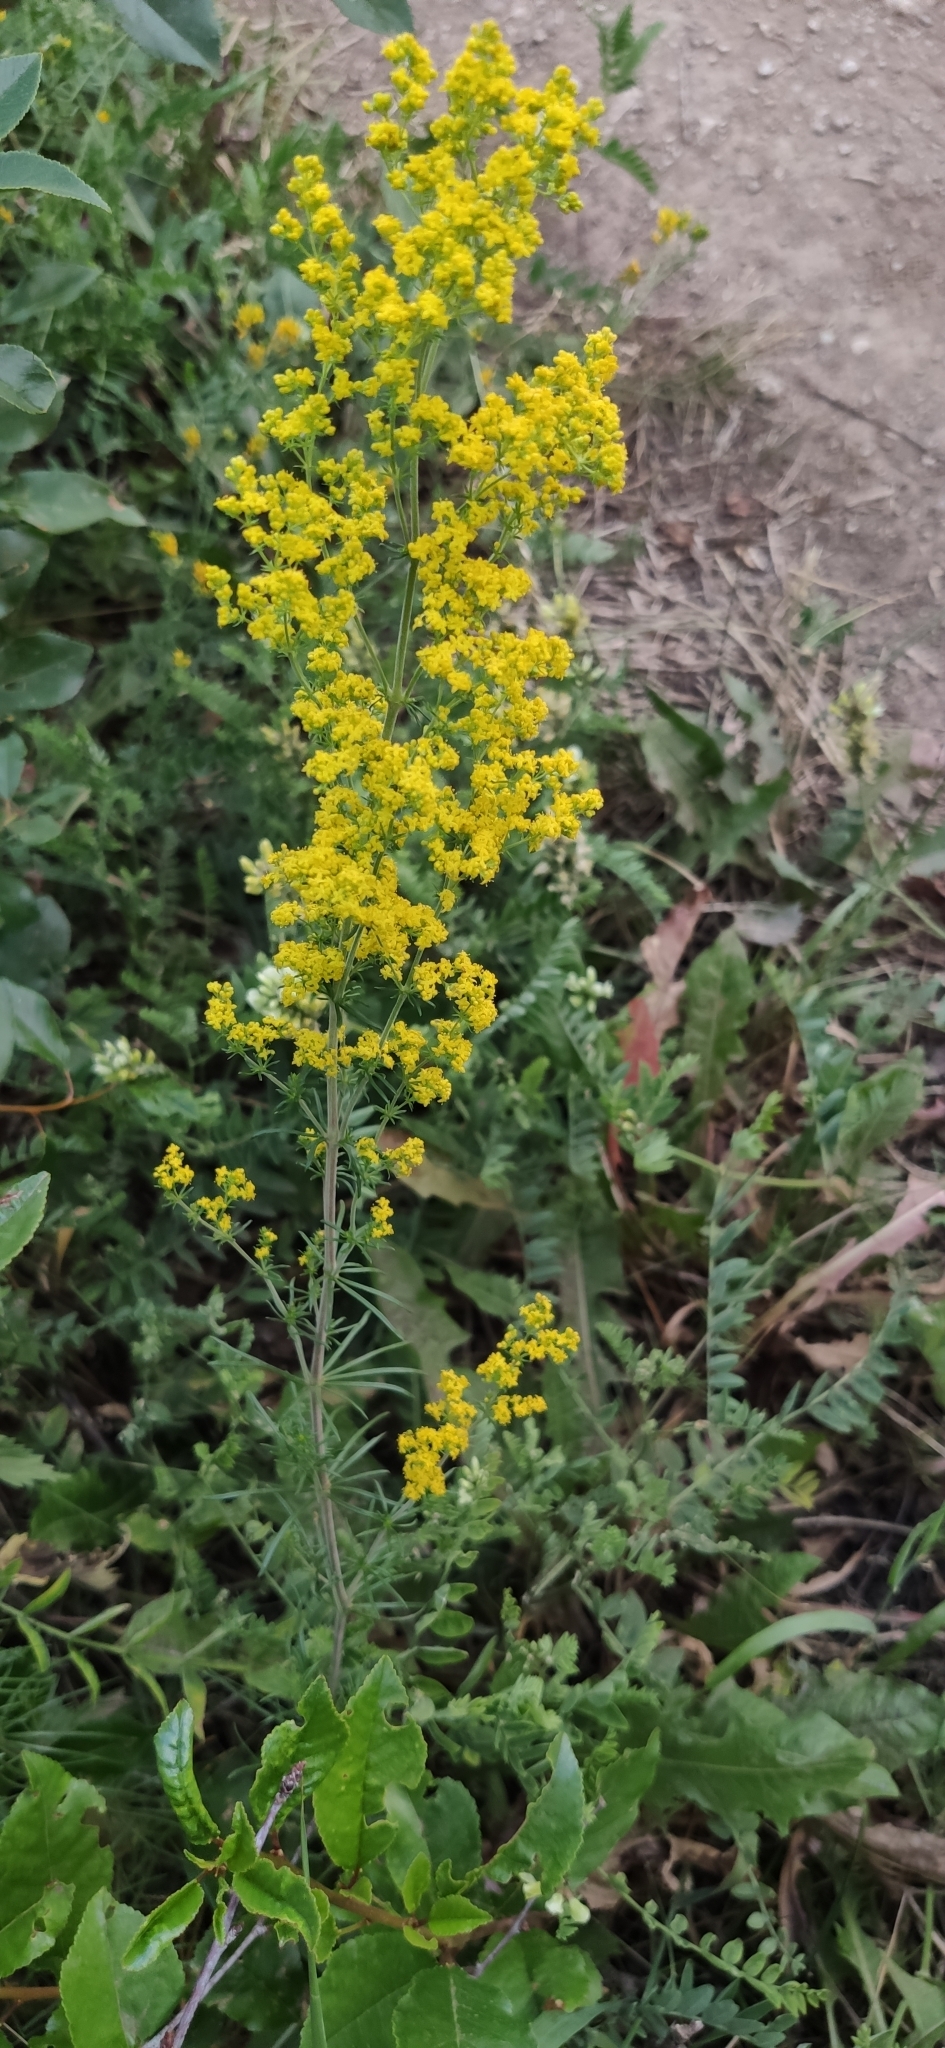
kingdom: Plantae
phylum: Tracheophyta
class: Magnoliopsida
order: Gentianales
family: Rubiaceae
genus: Galium
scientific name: Galium verum
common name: Lady's bedstraw
